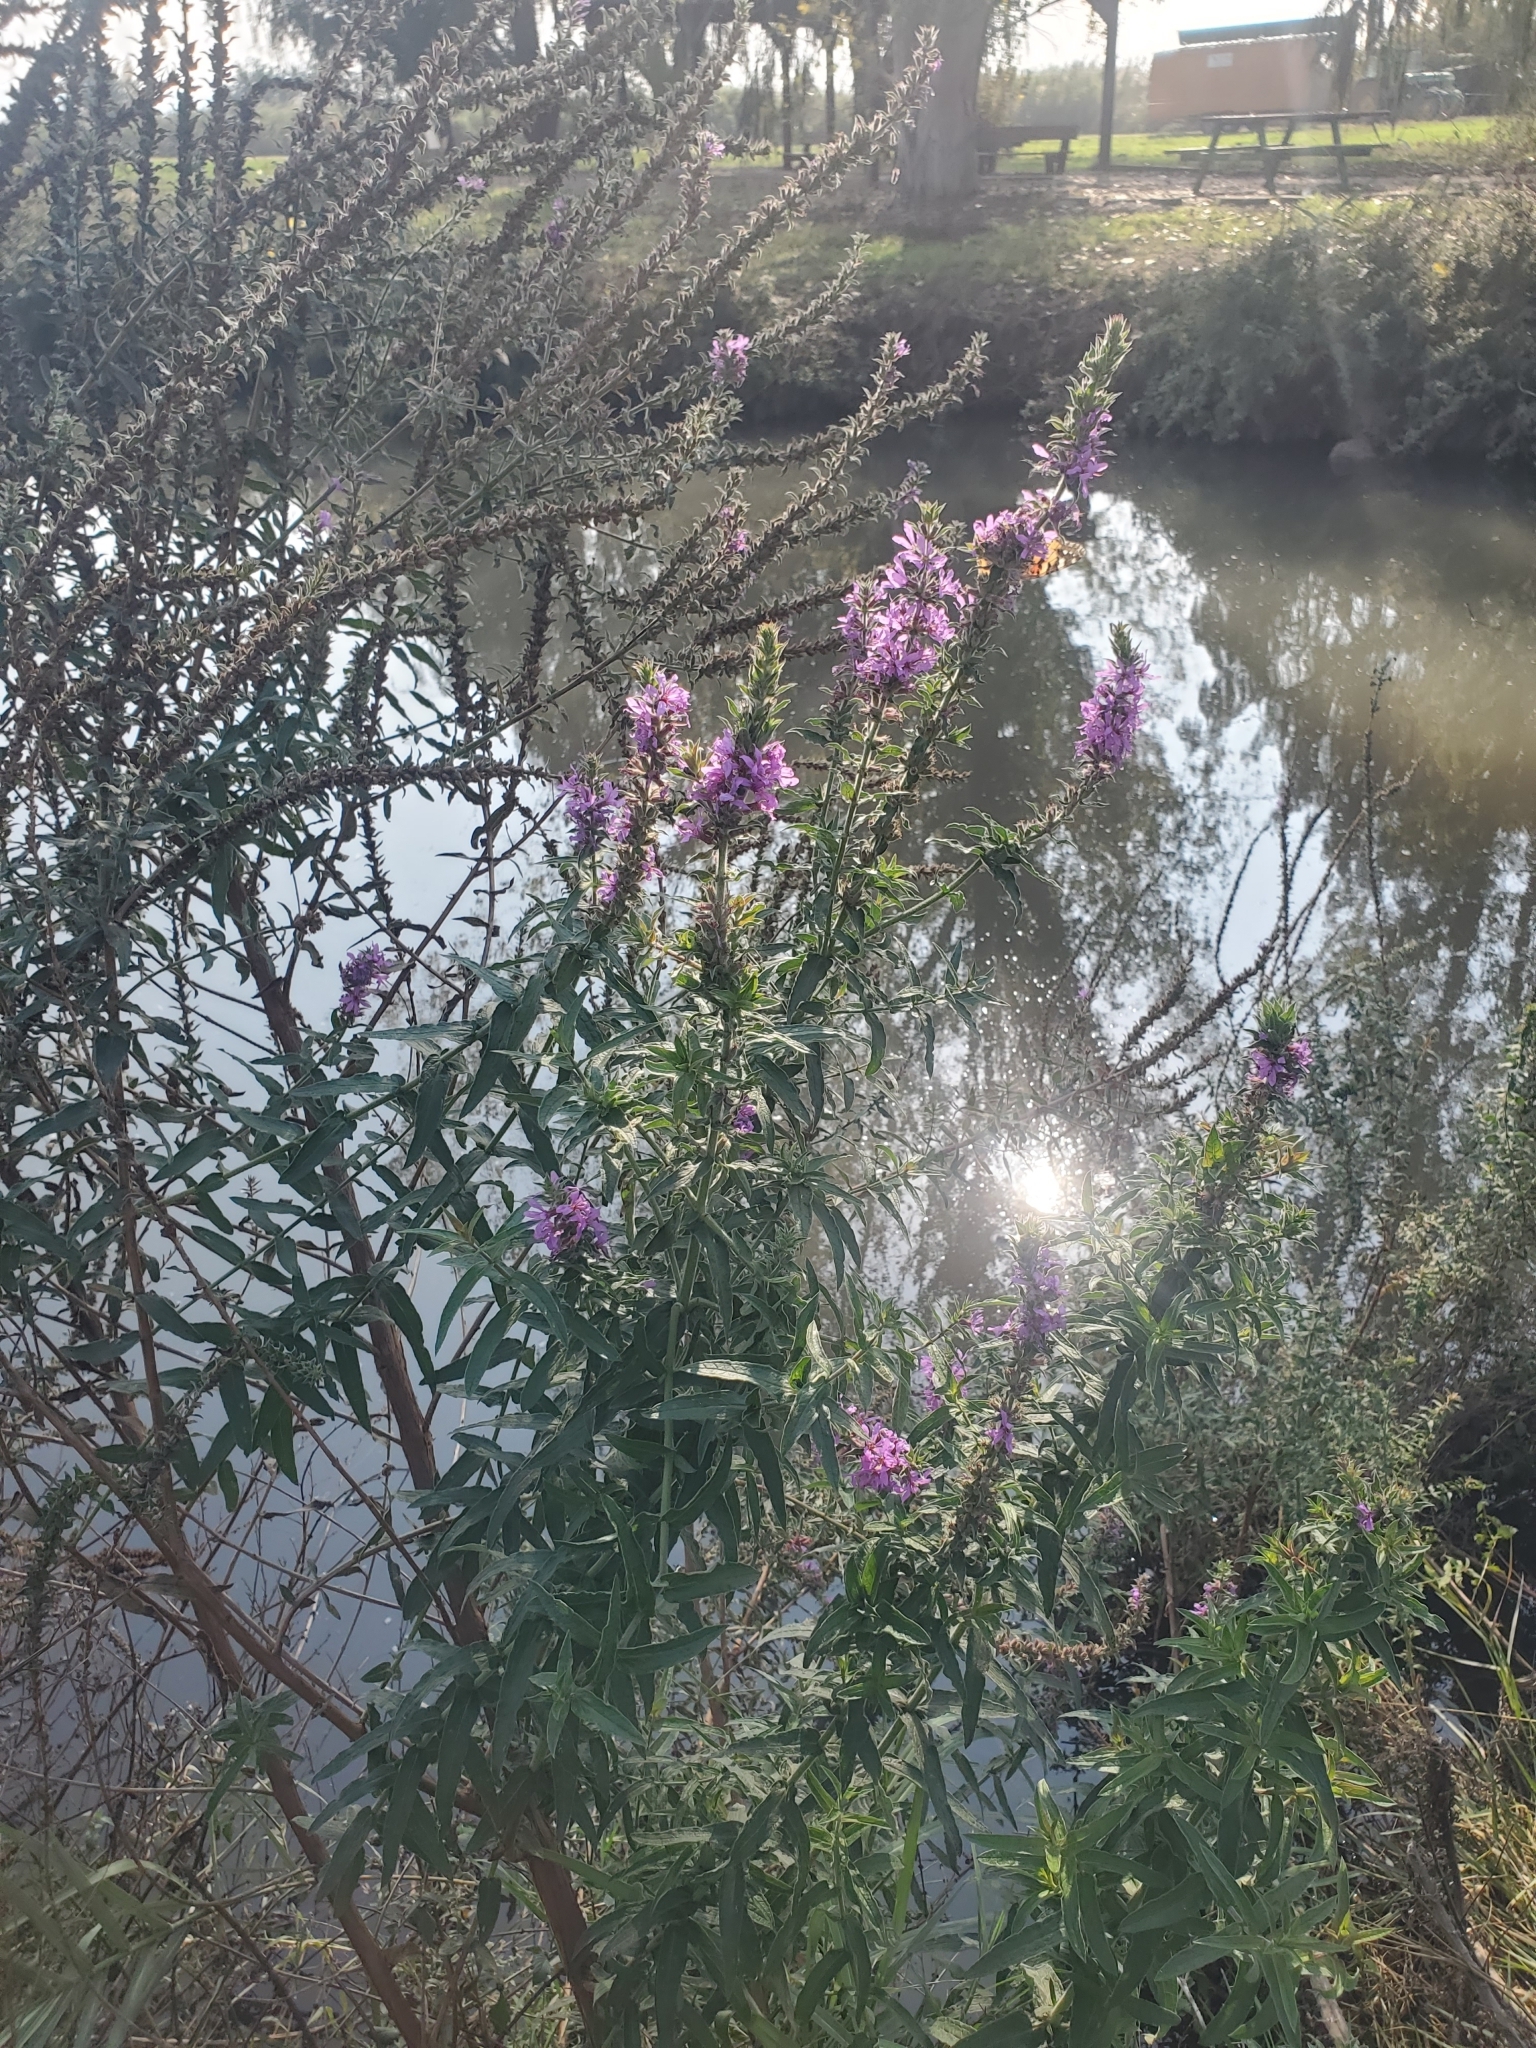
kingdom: Plantae
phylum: Tracheophyta
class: Magnoliopsida
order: Myrtales
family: Lythraceae
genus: Lythrum
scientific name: Lythrum salicaria
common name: Purple loosestrife
